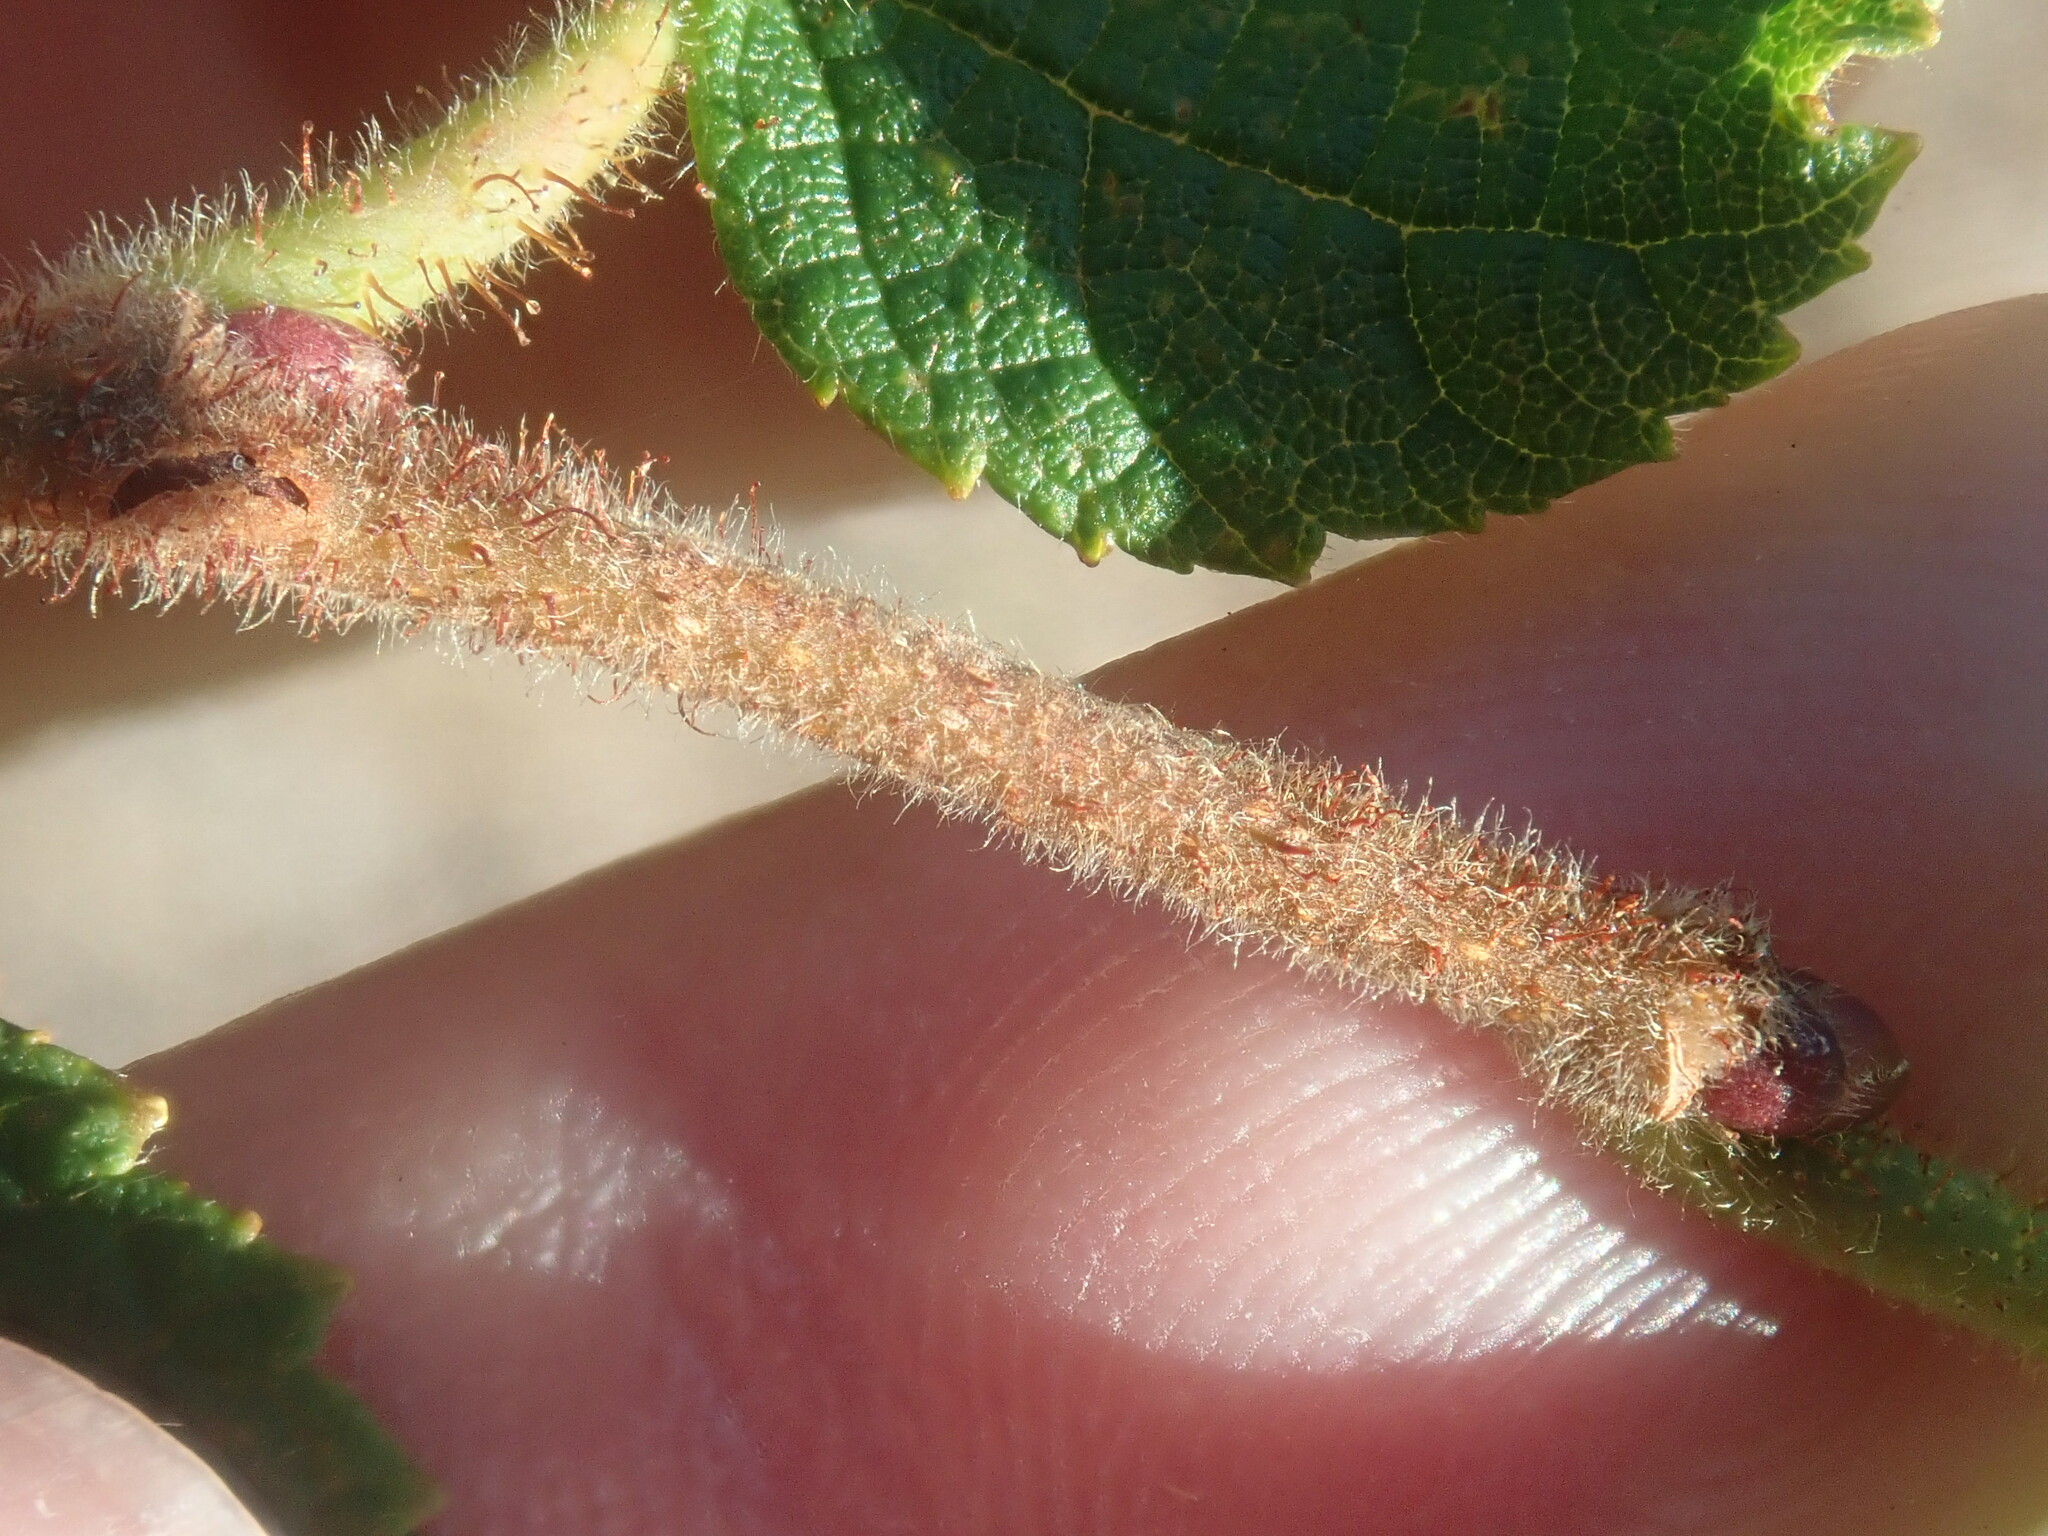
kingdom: Plantae
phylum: Tracheophyta
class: Magnoliopsida
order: Fagales
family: Betulaceae
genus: Corylus
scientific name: Corylus americana
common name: American hazel
